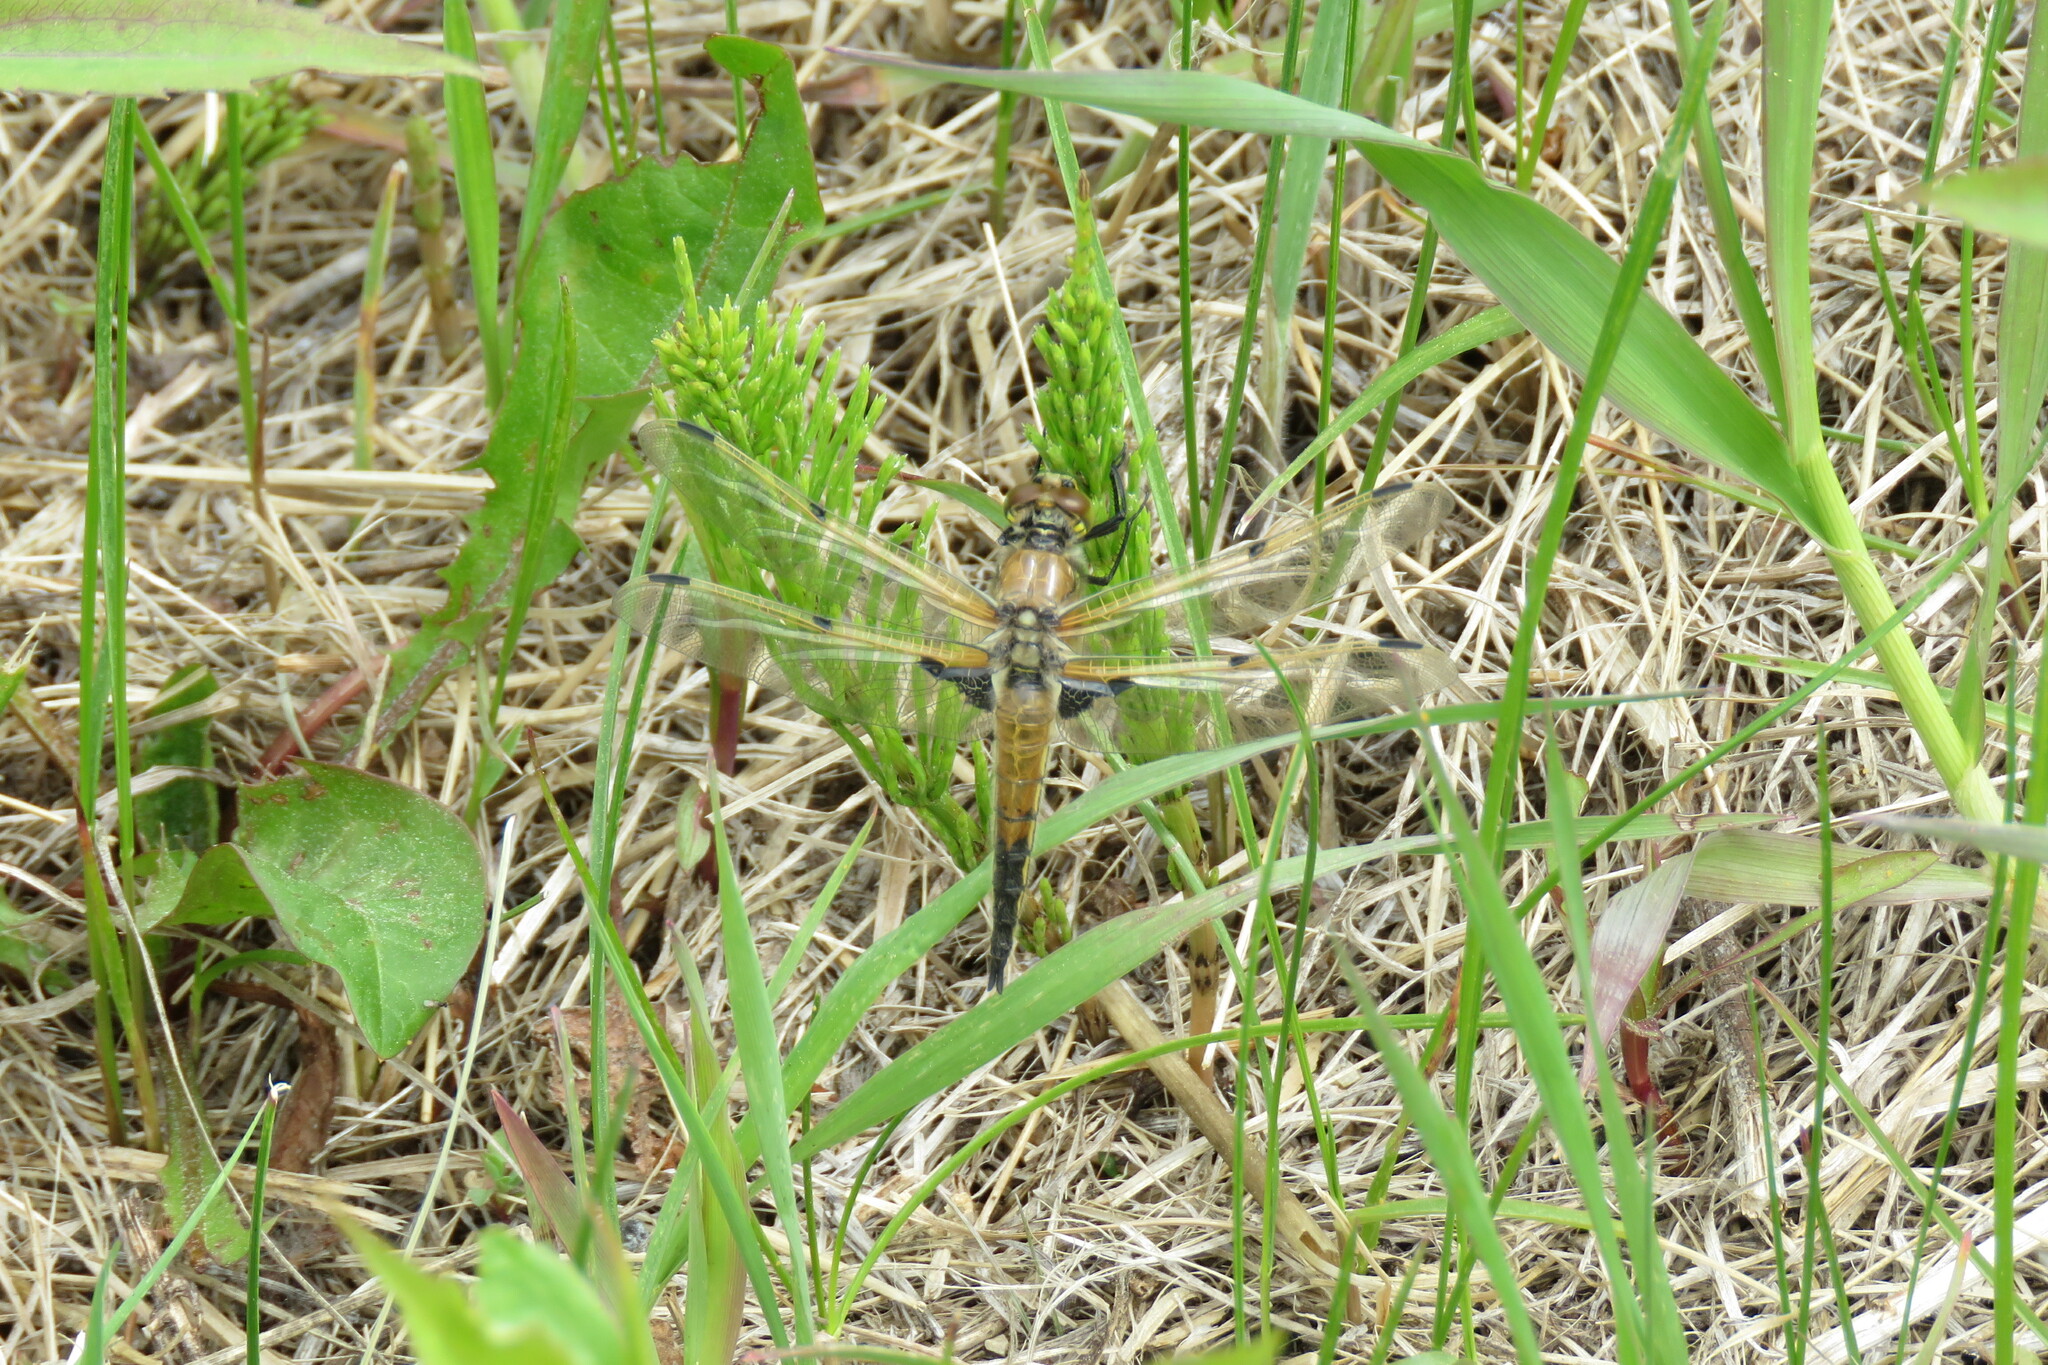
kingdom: Animalia
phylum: Arthropoda
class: Insecta
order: Odonata
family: Libellulidae
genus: Libellula
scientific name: Libellula quadrimaculata
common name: Four-spotted chaser
